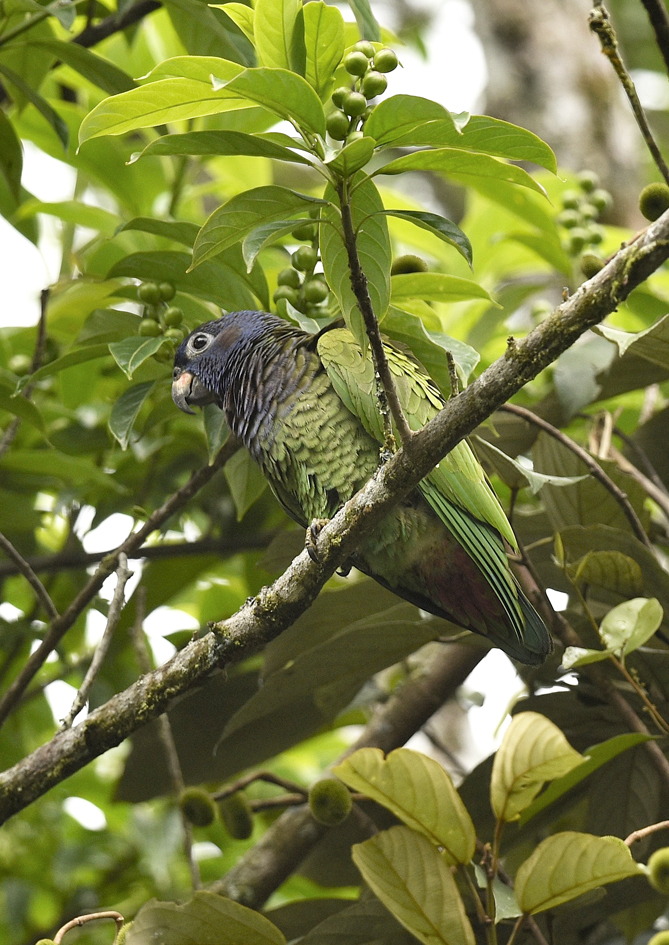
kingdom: Animalia
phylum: Chordata
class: Aves
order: Psittaciformes
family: Psittacidae
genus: Pionus
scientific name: Pionus menstruus
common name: Blue-headed parrot
